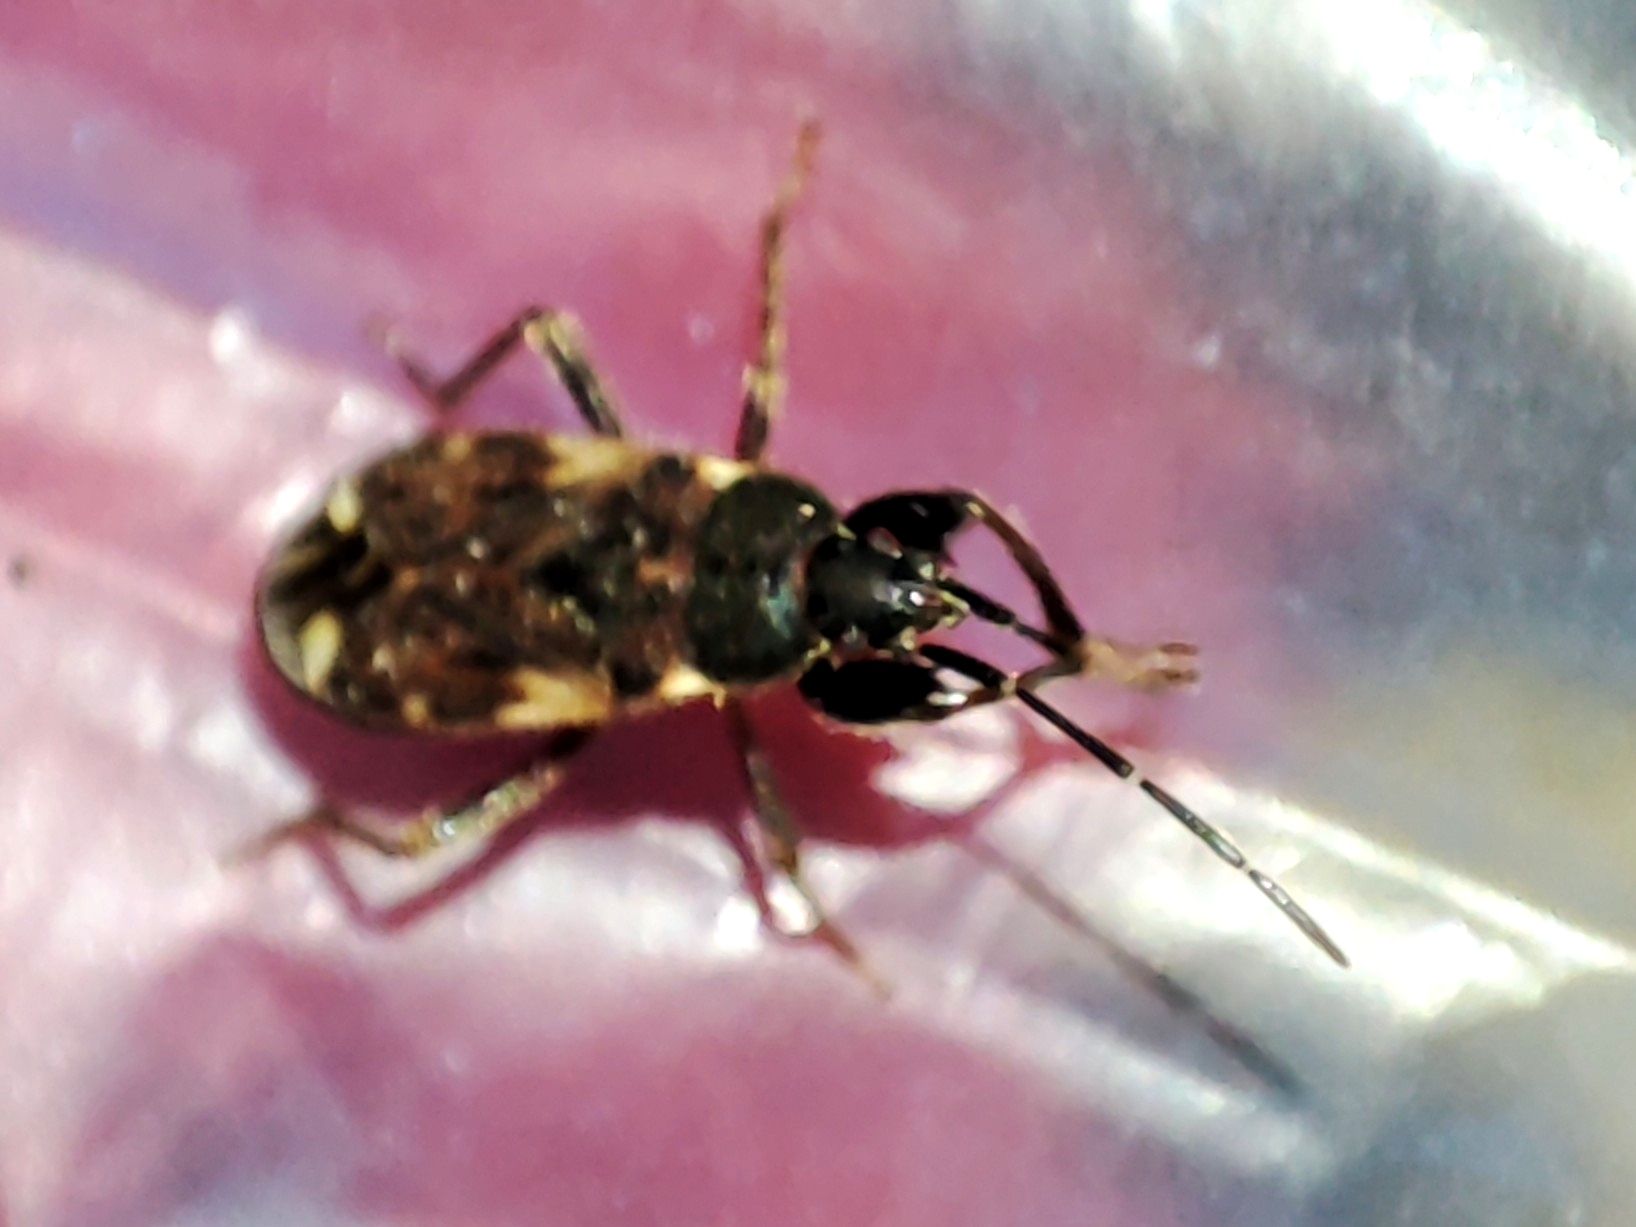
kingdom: Animalia
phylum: Arthropoda
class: Insecta
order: Hemiptera
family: Rhyparochromidae
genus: Eremocoris
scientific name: Eremocoris podagricus
